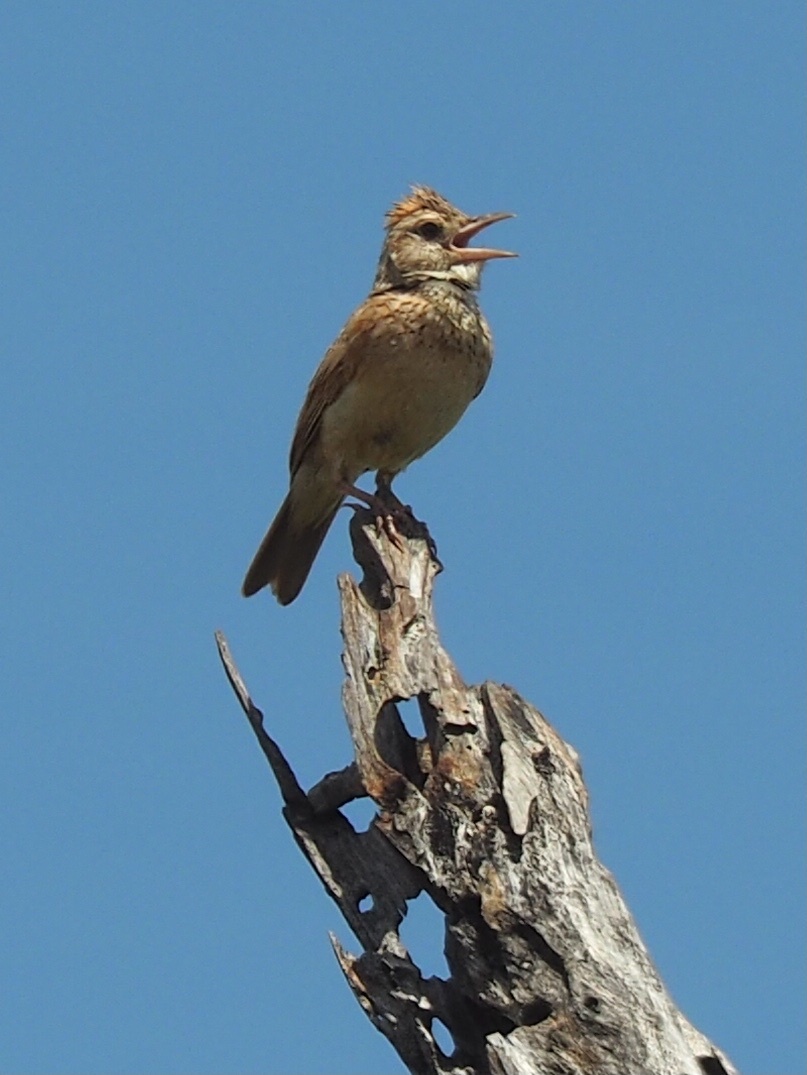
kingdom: Animalia
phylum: Chordata
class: Aves
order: Passeriformes
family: Alaudidae
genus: Mirafra
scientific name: Mirafra africana
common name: Rufous-naped lark
